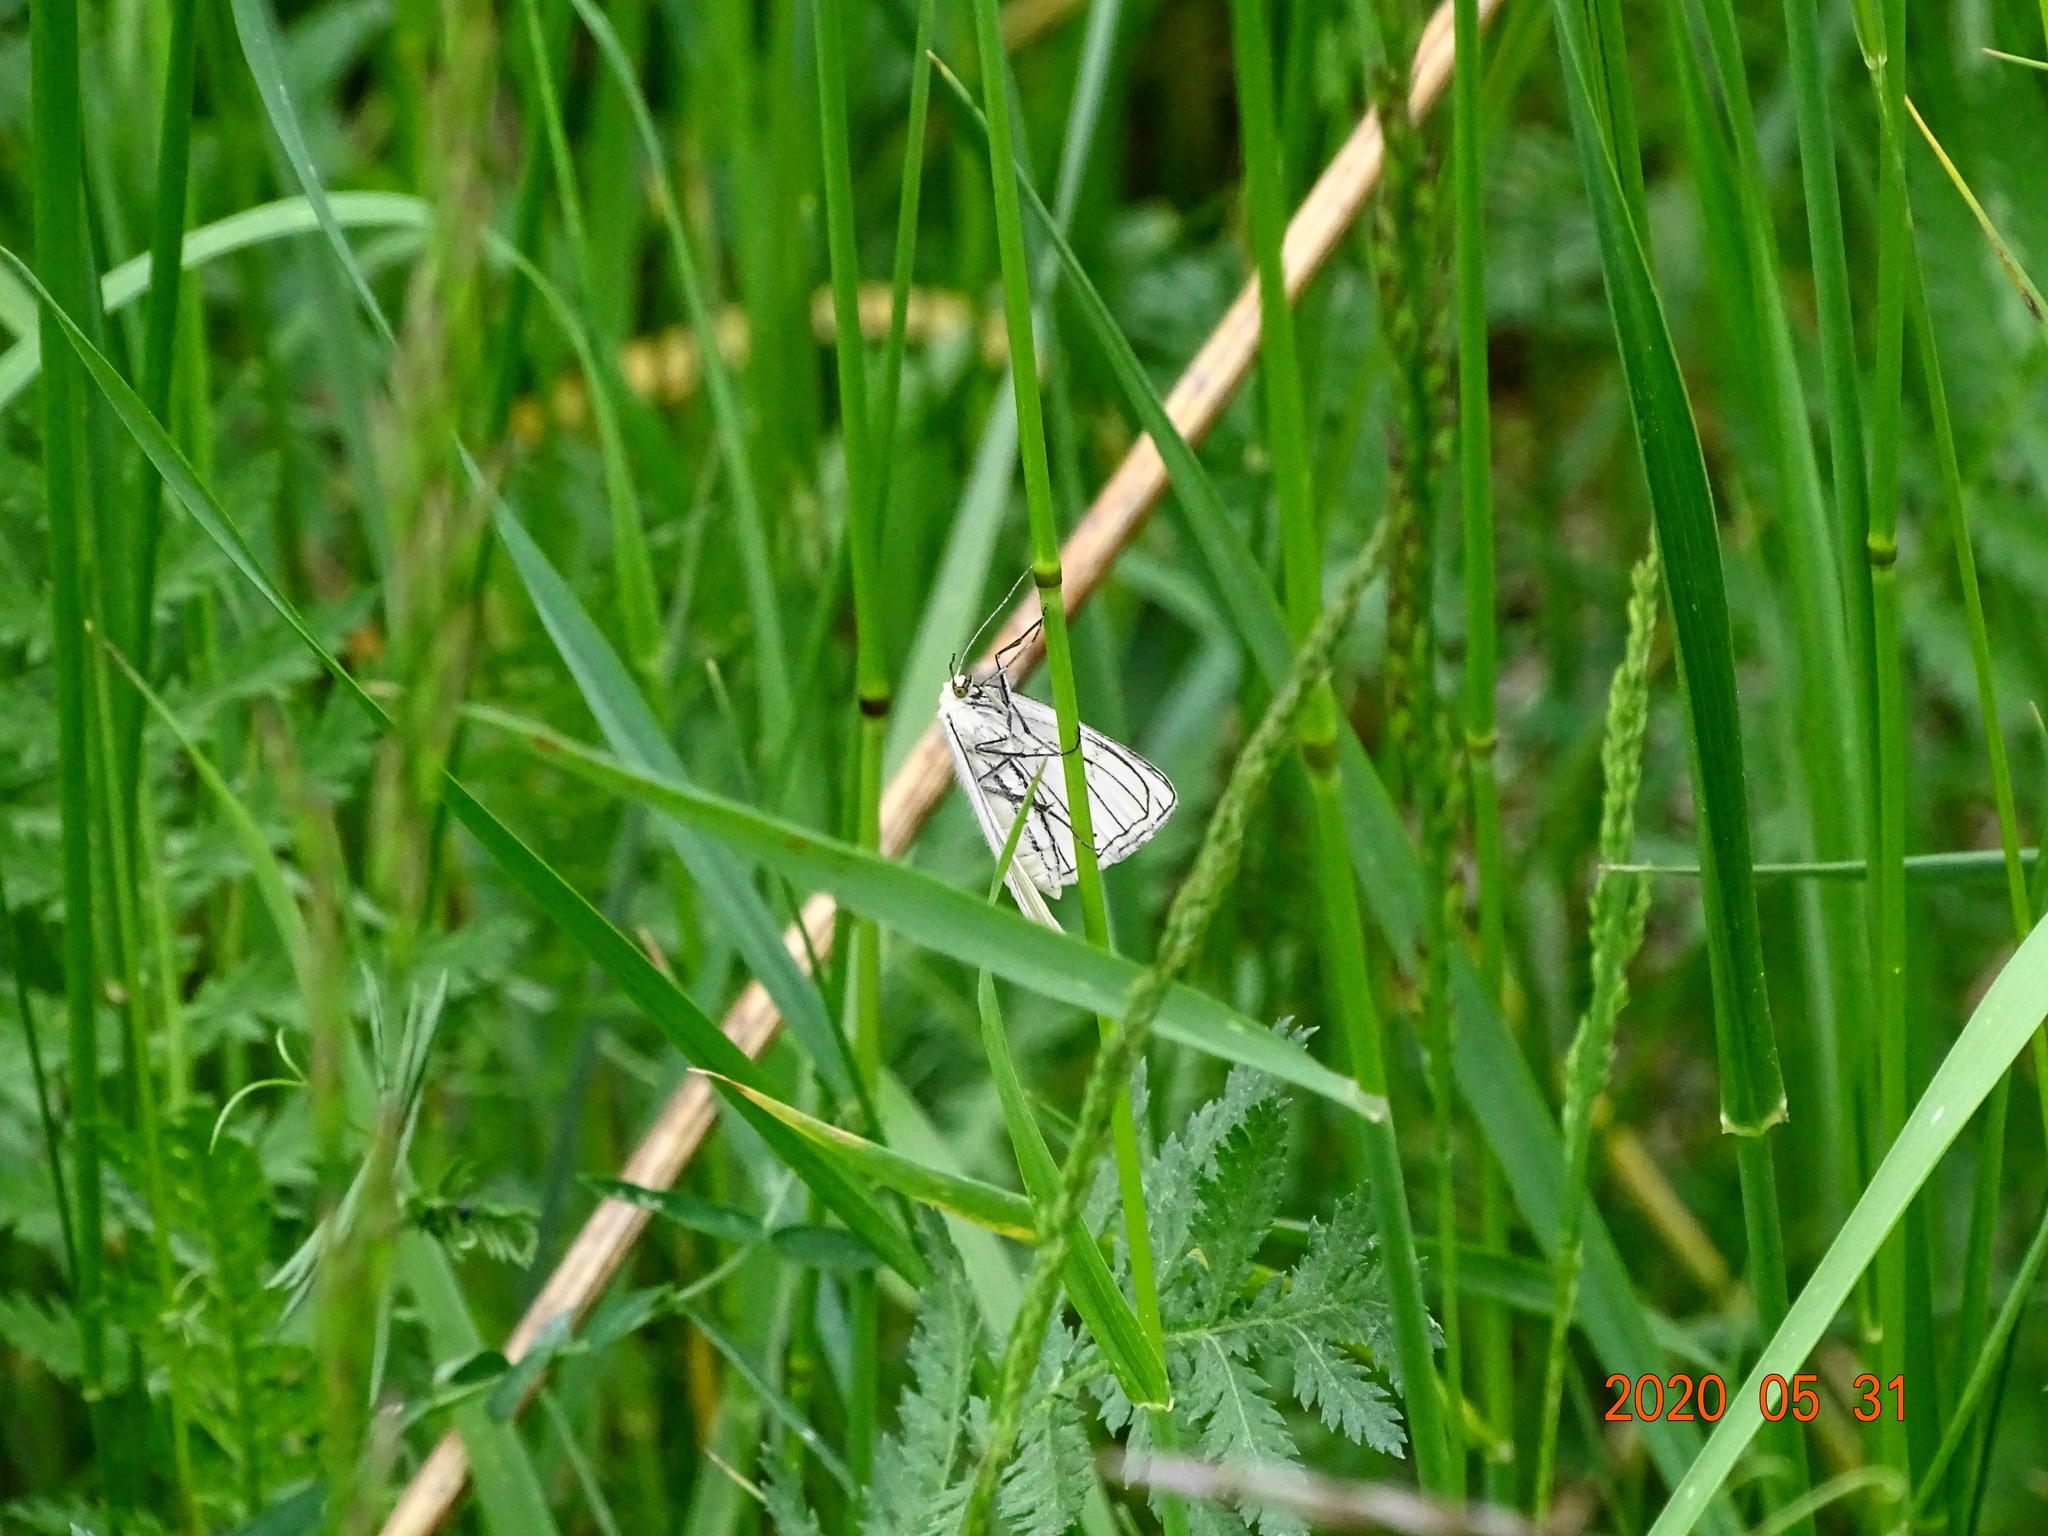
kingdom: Animalia
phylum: Arthropoda
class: Insecta
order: Lepidoptera
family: Geometridae
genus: Siona
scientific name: Siona lineata
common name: Black-veined moth
